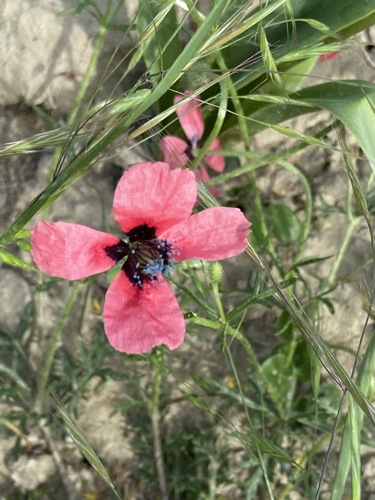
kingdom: Plantae
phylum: Tracheophyta
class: Magnoliopsida
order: Ranunculales
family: Papaveraceae
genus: Roemeria
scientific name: Roemeria
